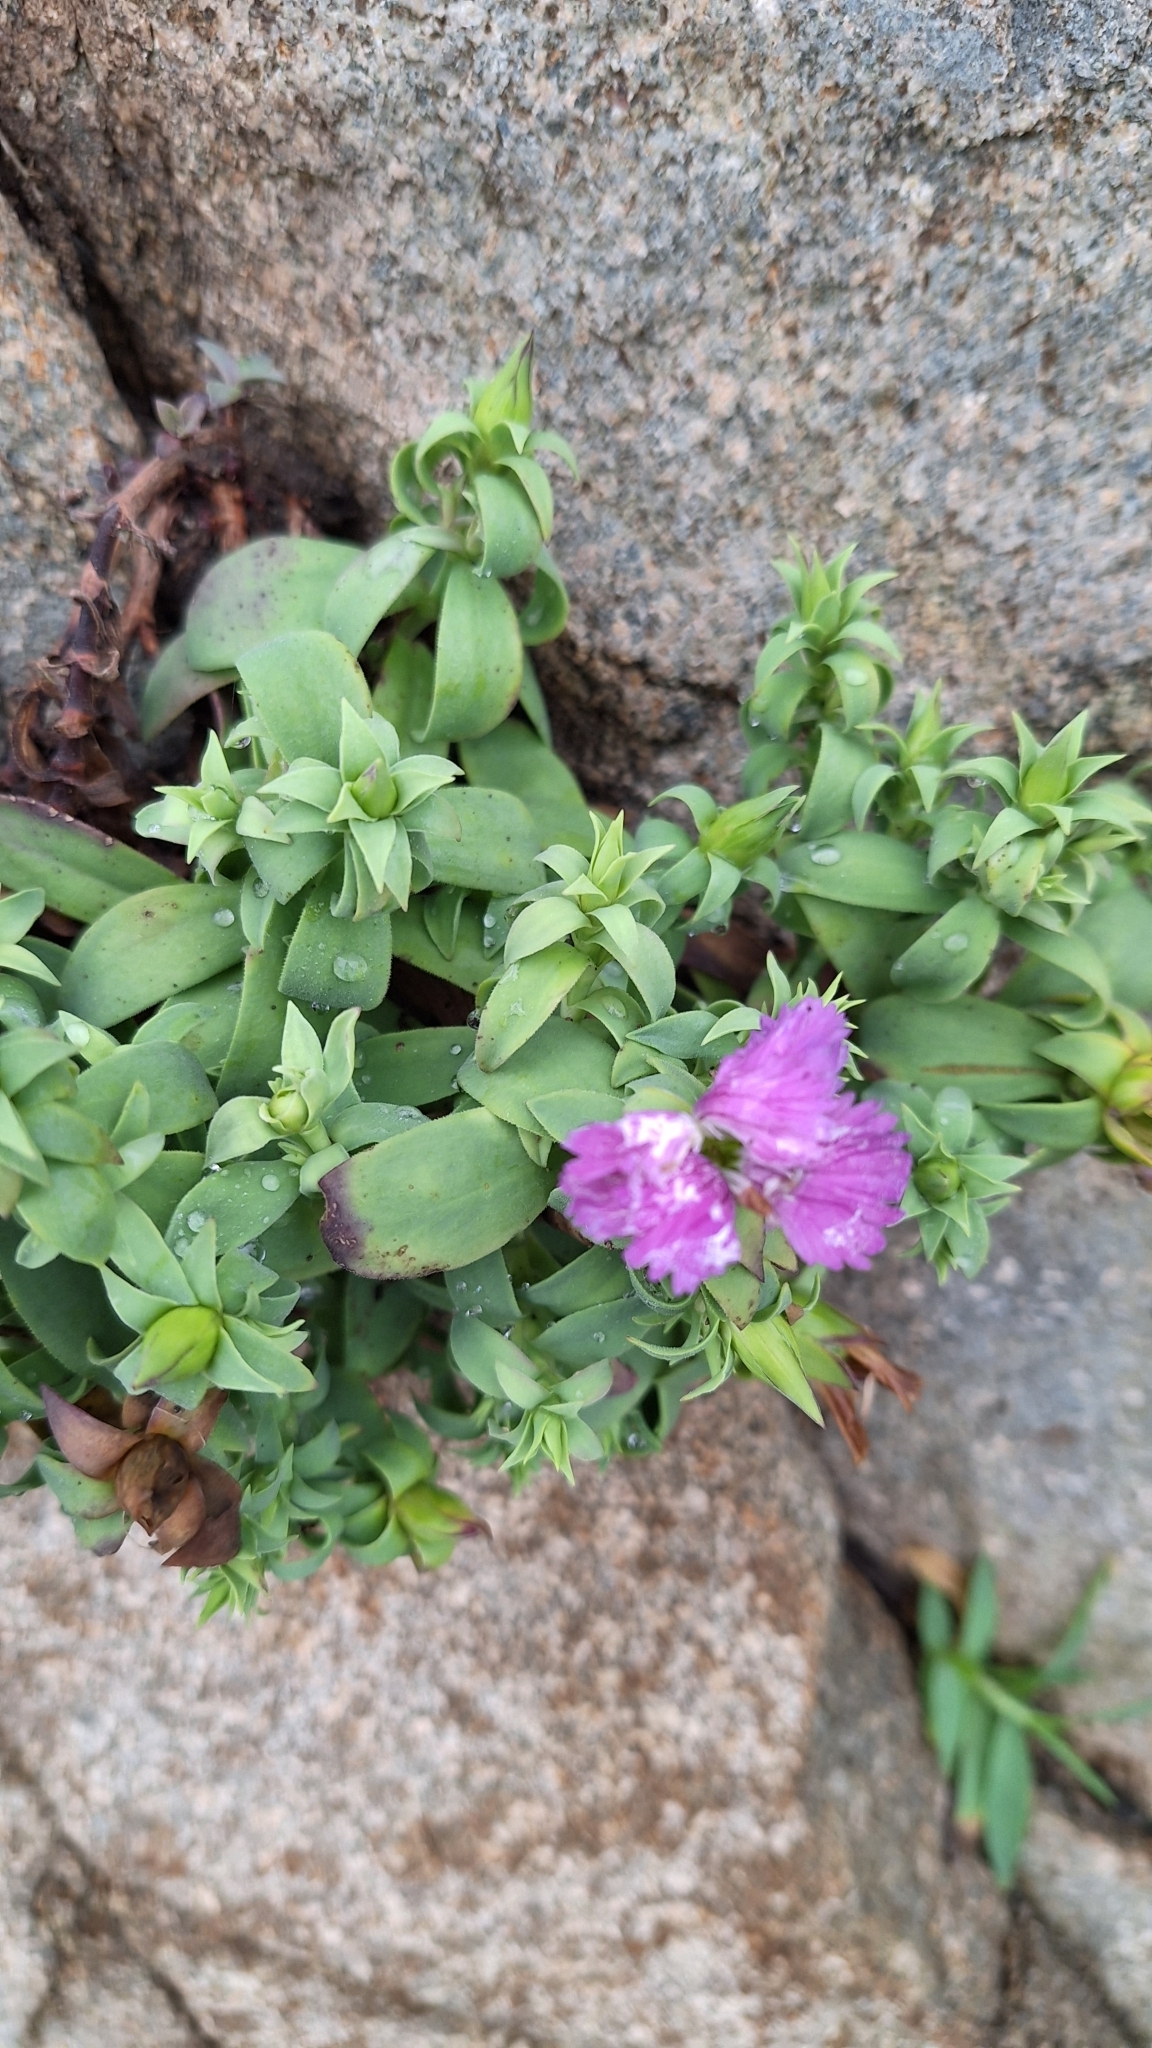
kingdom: Plantae
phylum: Tracheophyta
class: Magnoliopsida
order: Caryophyllales
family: Caryophyllaceae
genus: Dianthus
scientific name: Dianthus chinensis
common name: Rainbow pink
